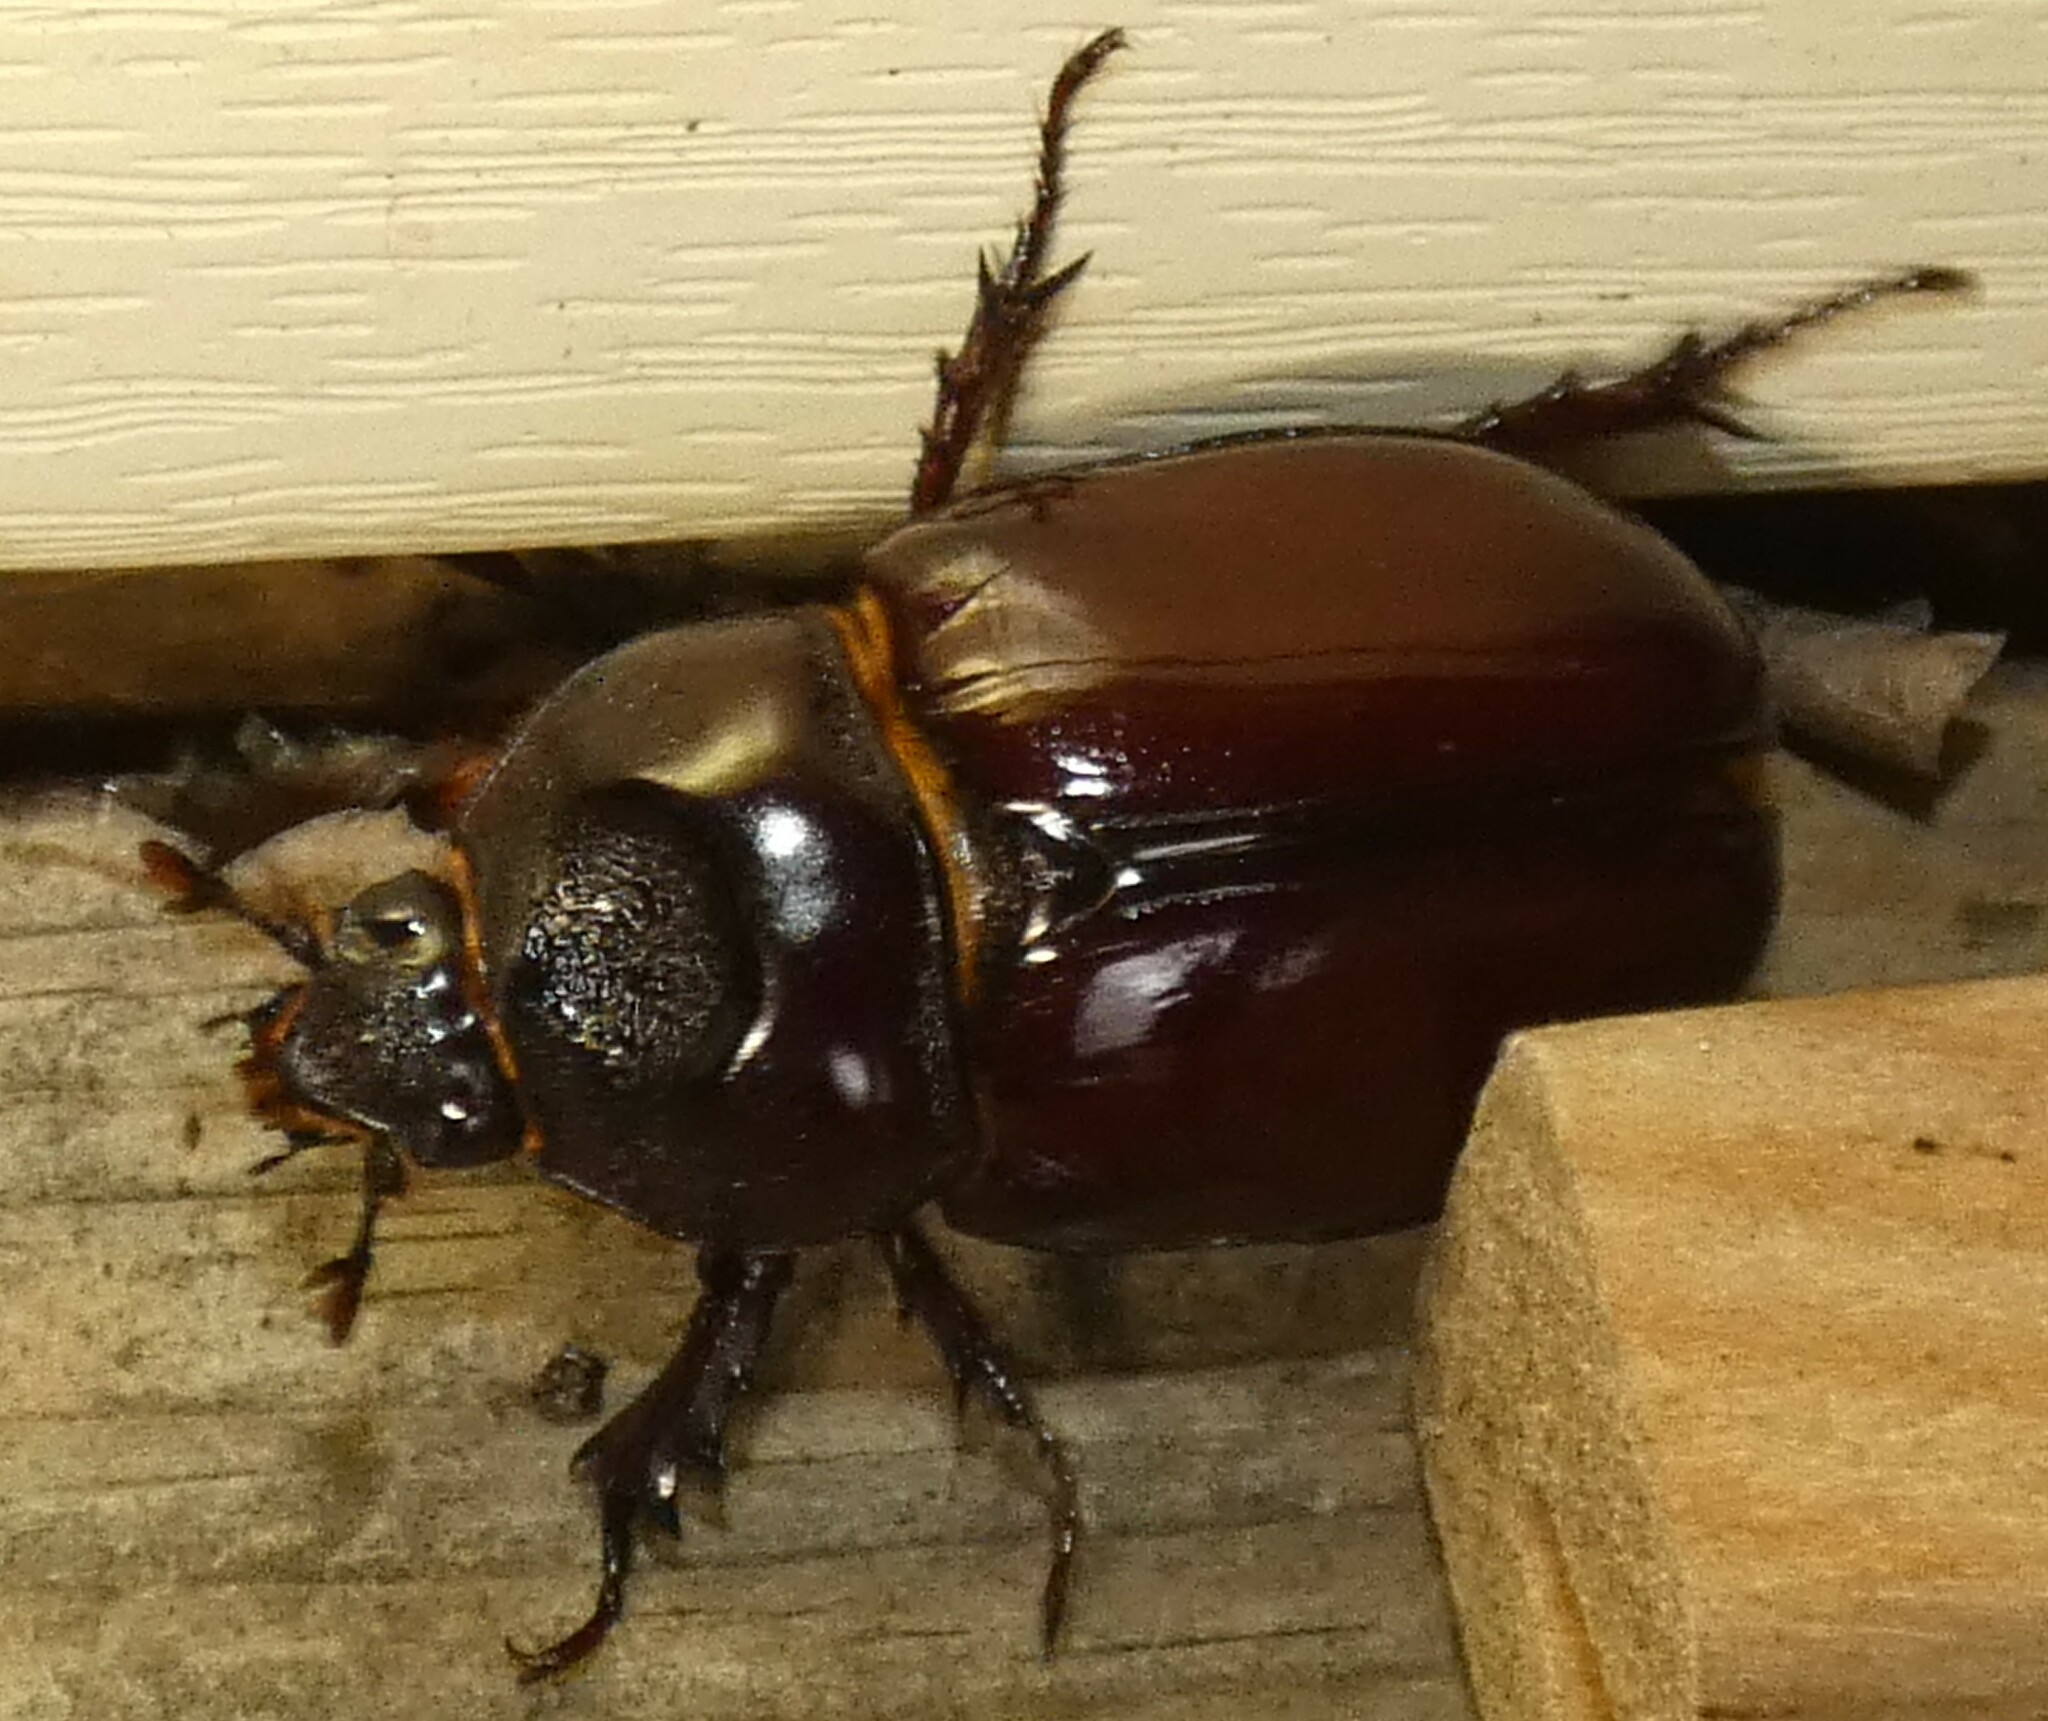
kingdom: Animalia
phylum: Arthropoda
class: Insecta
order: Coleoptera
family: Scarabaeidae
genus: Strategus
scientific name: Strategus aloeus
